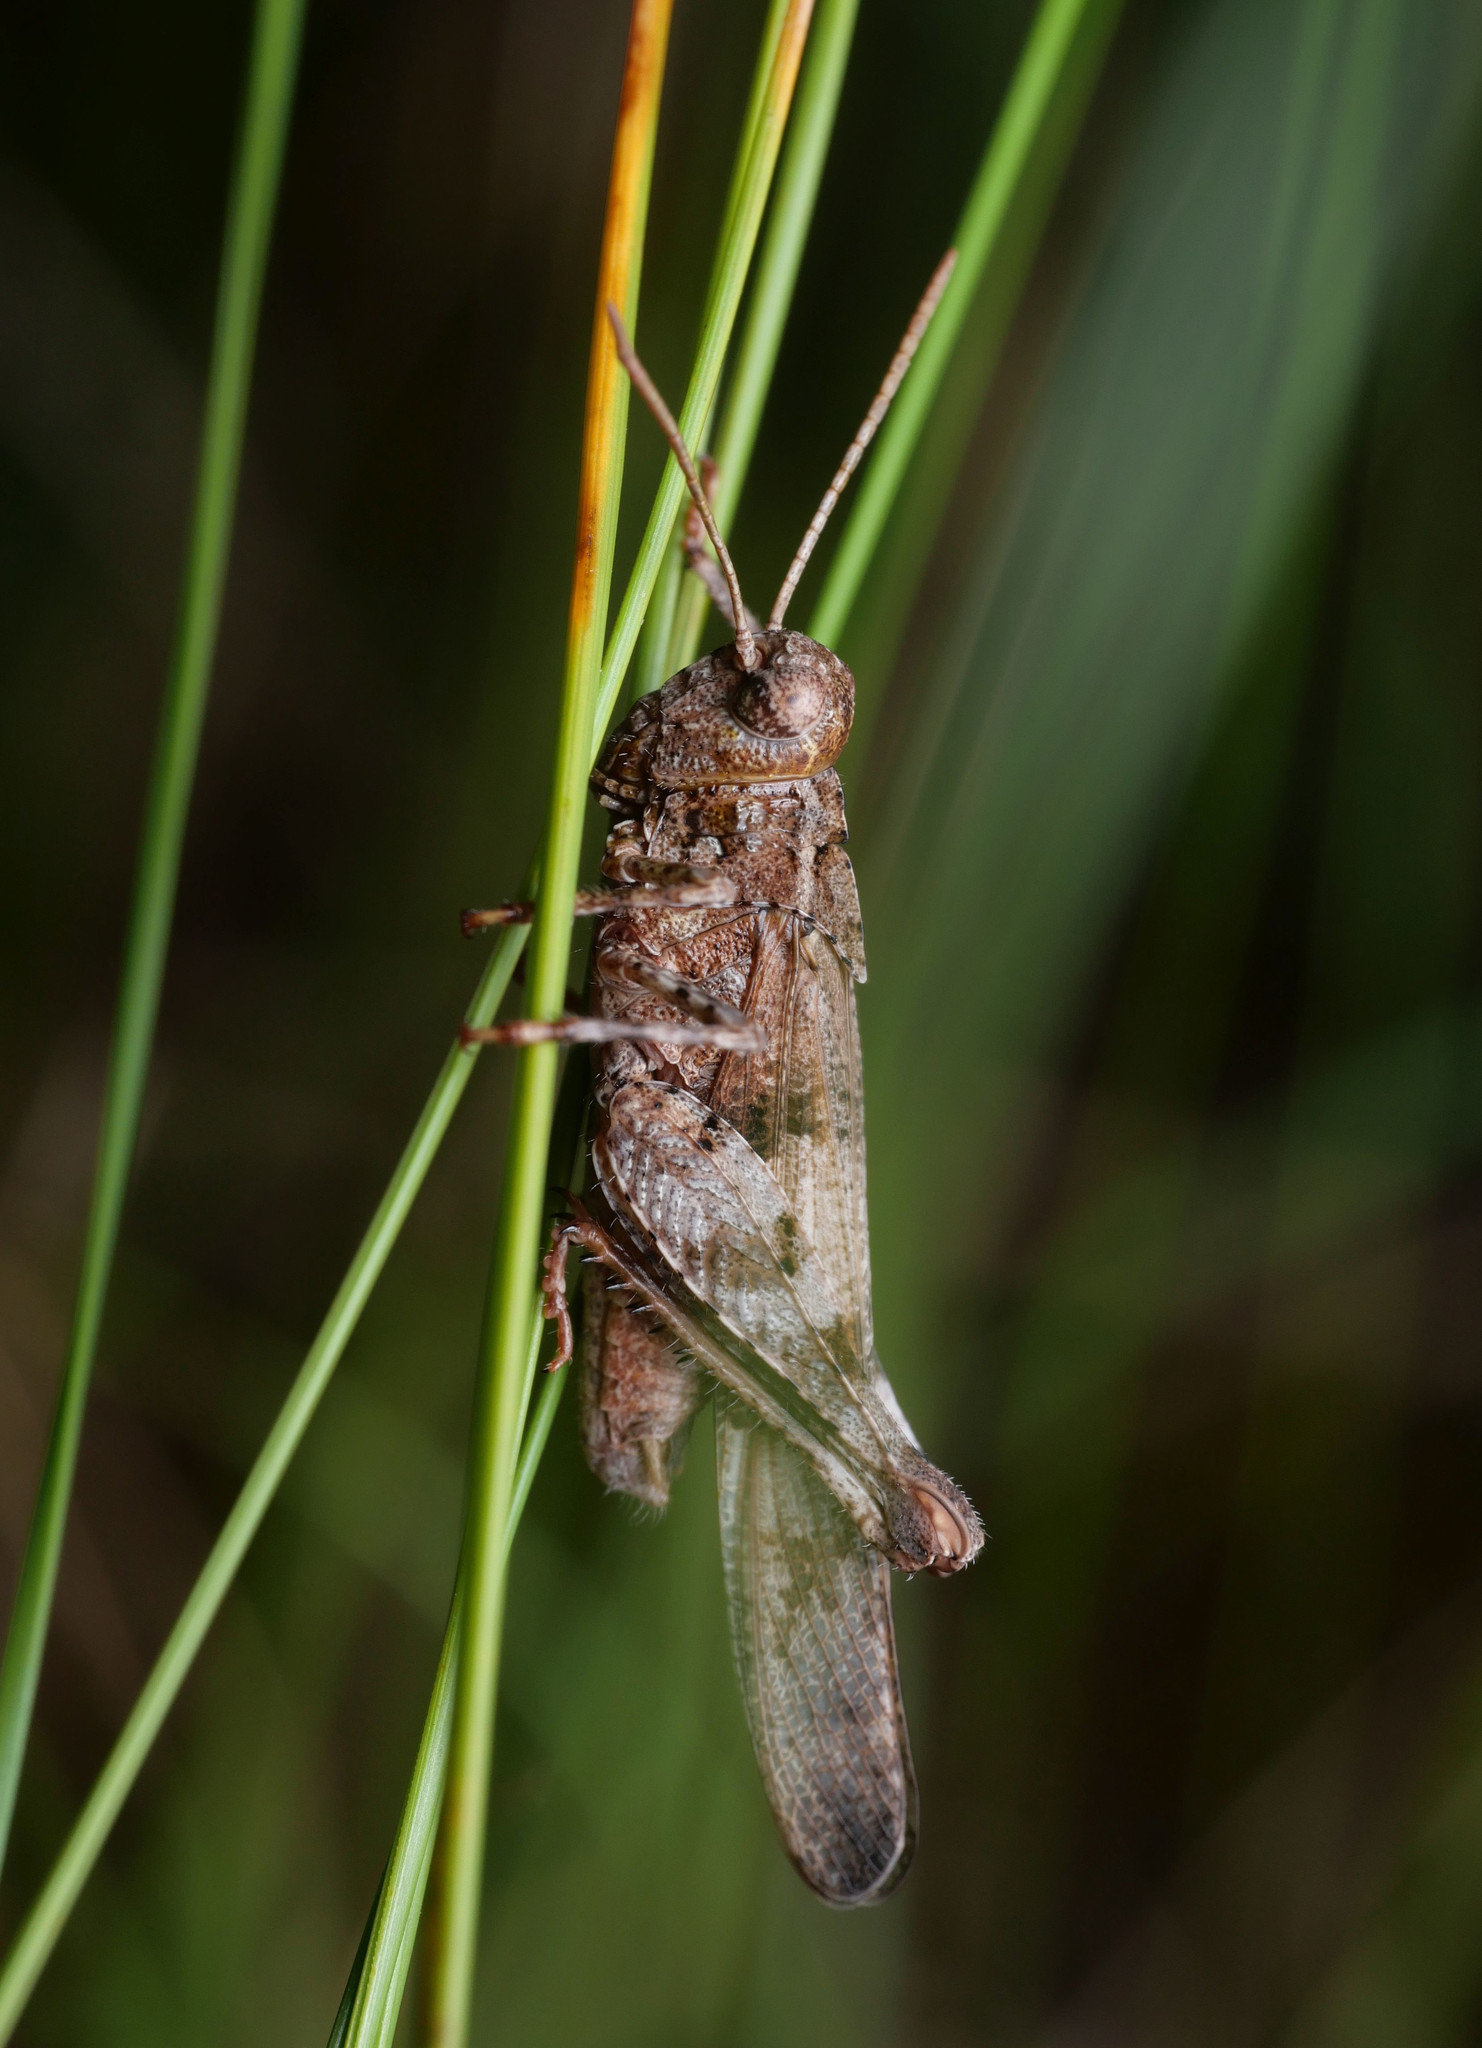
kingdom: Animalia
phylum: Arthropoda
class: Insecta
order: Orthoptera
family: Acrididae
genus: Oedipoda
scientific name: Oedipoda caerulescens
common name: Blue-winged grasshopper
